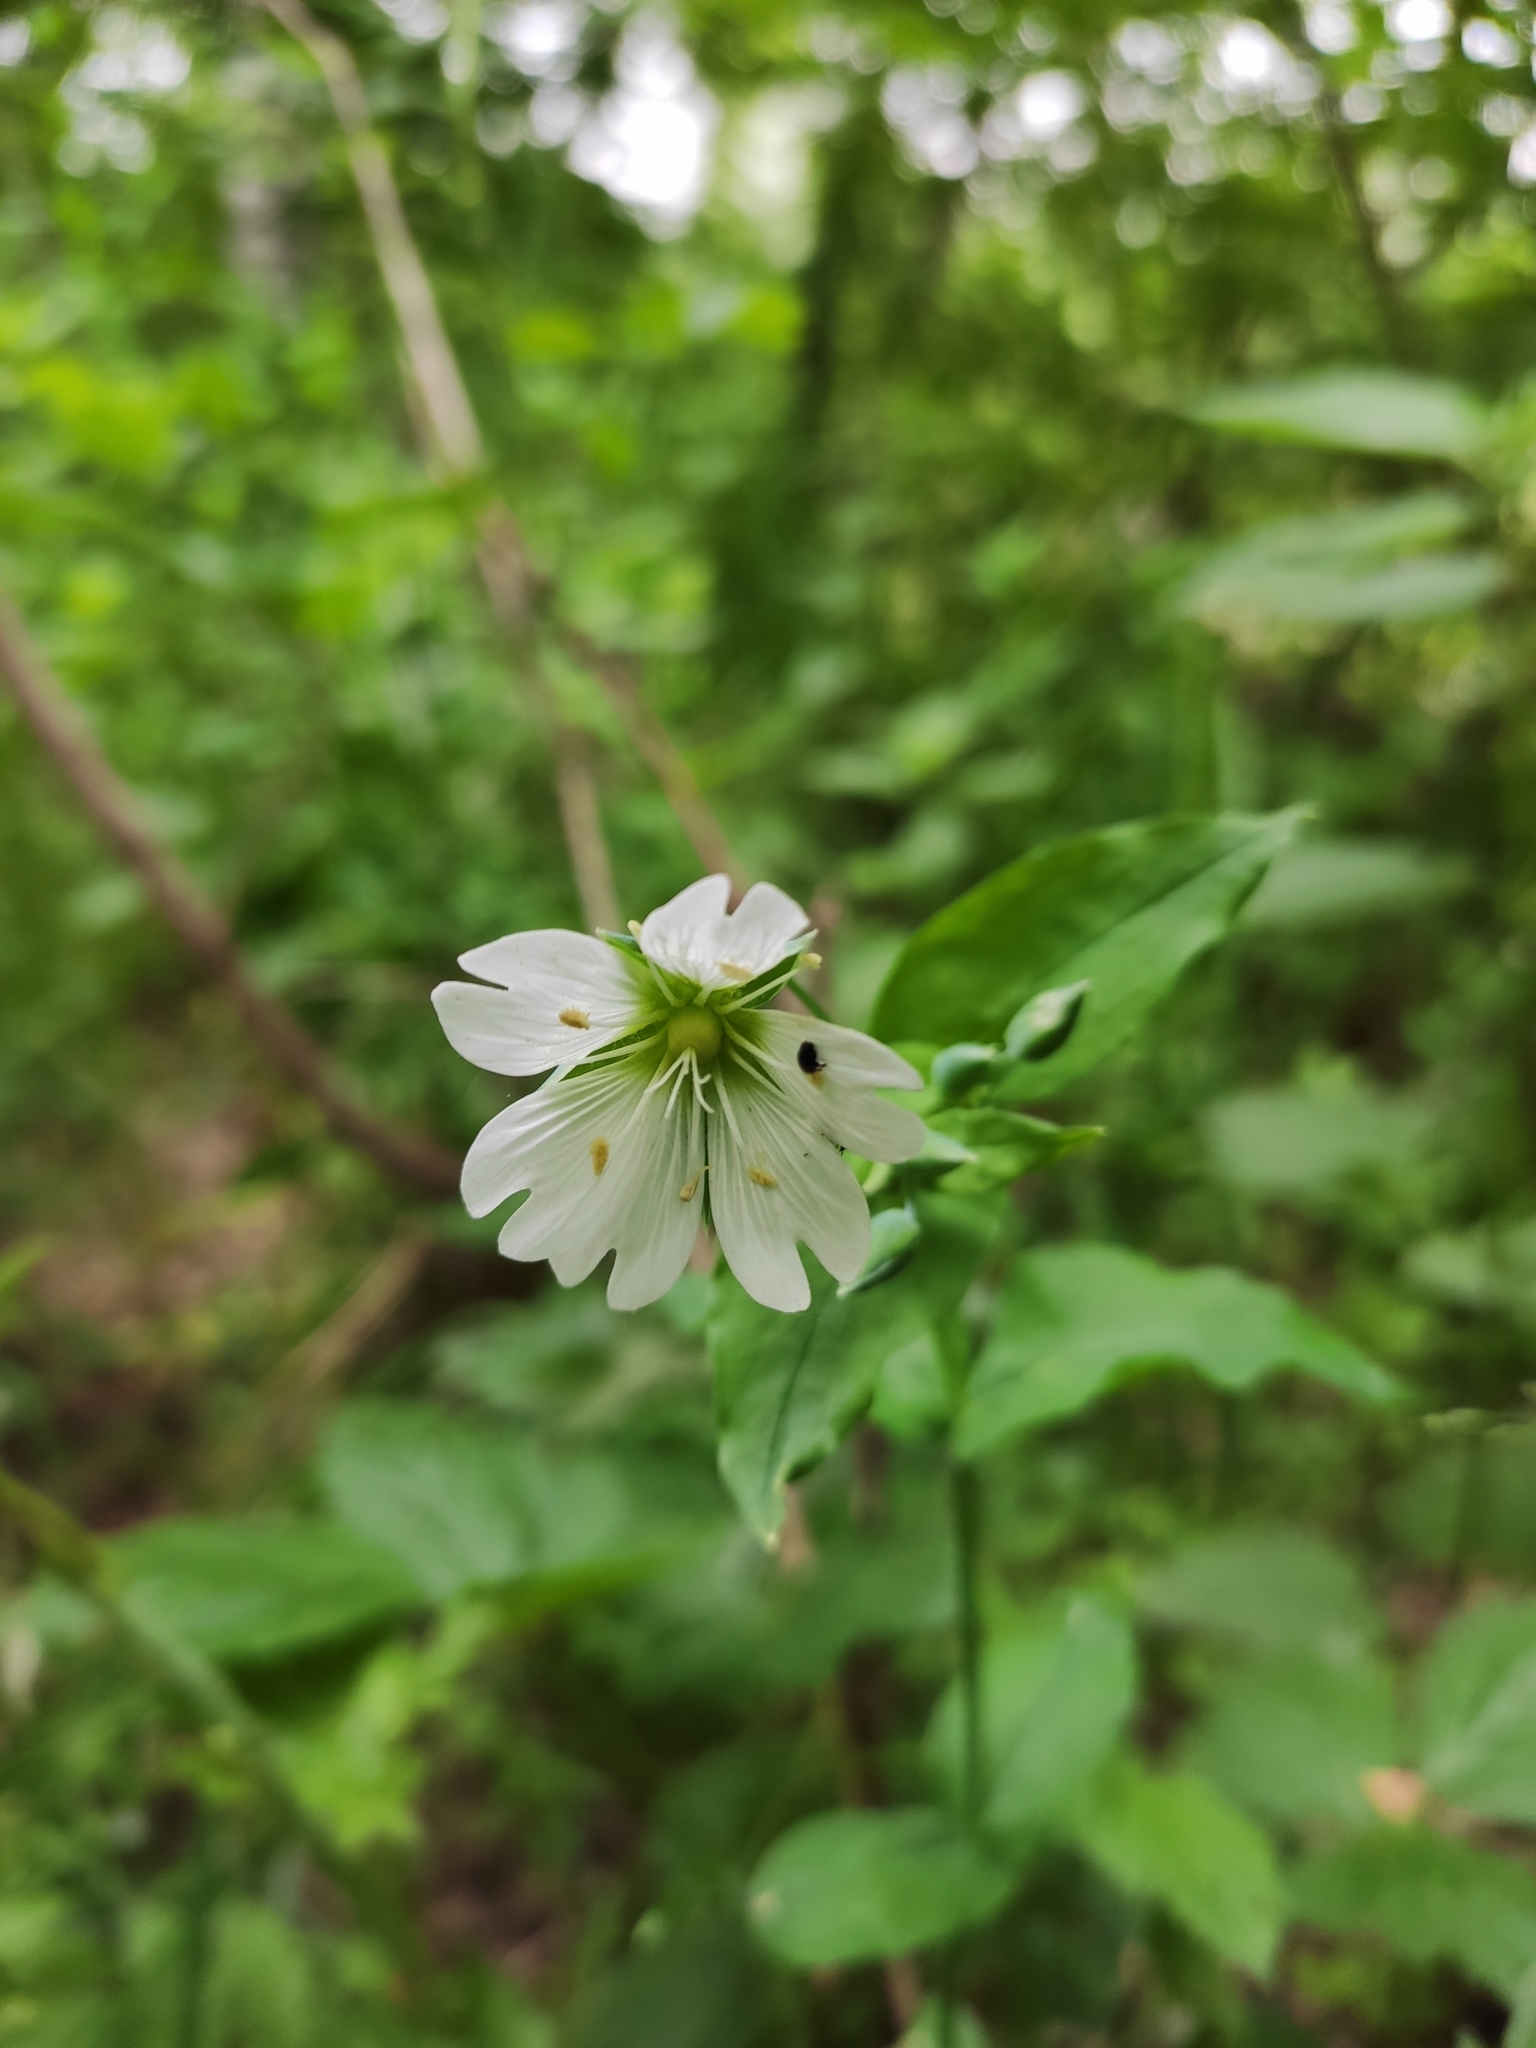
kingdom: Plantae
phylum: Tracheophyta
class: Magnoliopsida
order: Caryophyllales
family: Caryophyllaceae
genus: Cerastium
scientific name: Cerastium davuricum
